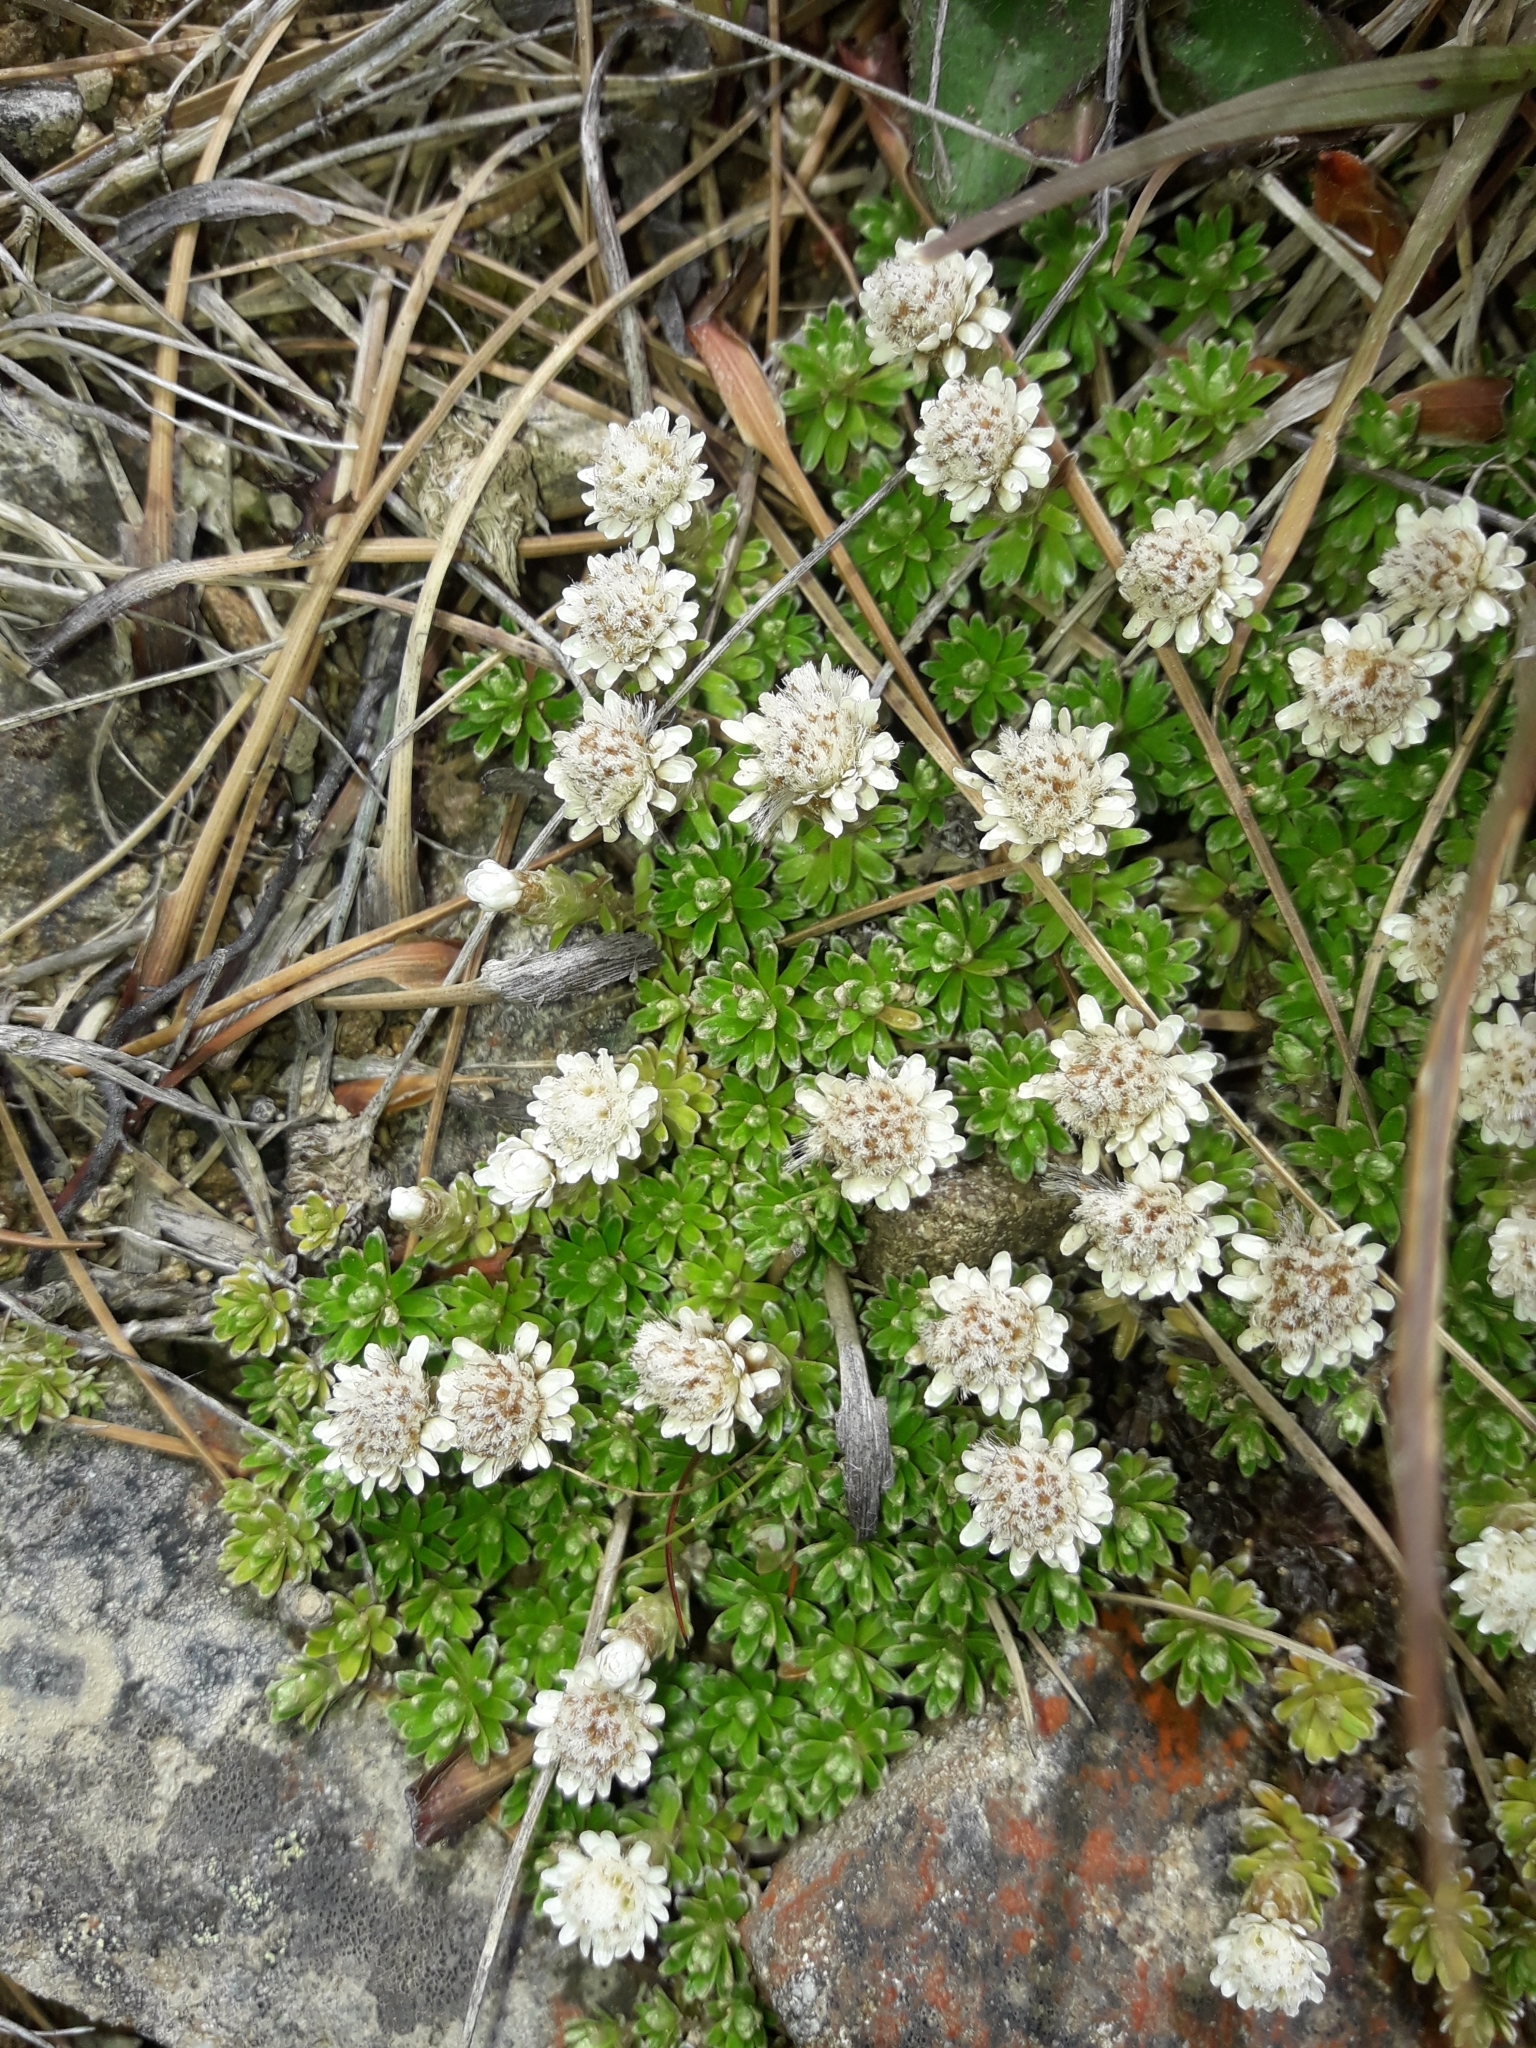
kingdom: Plantae
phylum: Tracheophyta
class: Magnoliopsida
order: Asterales
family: Asteraceae
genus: Raoulia
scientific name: Raoulia subsericea
